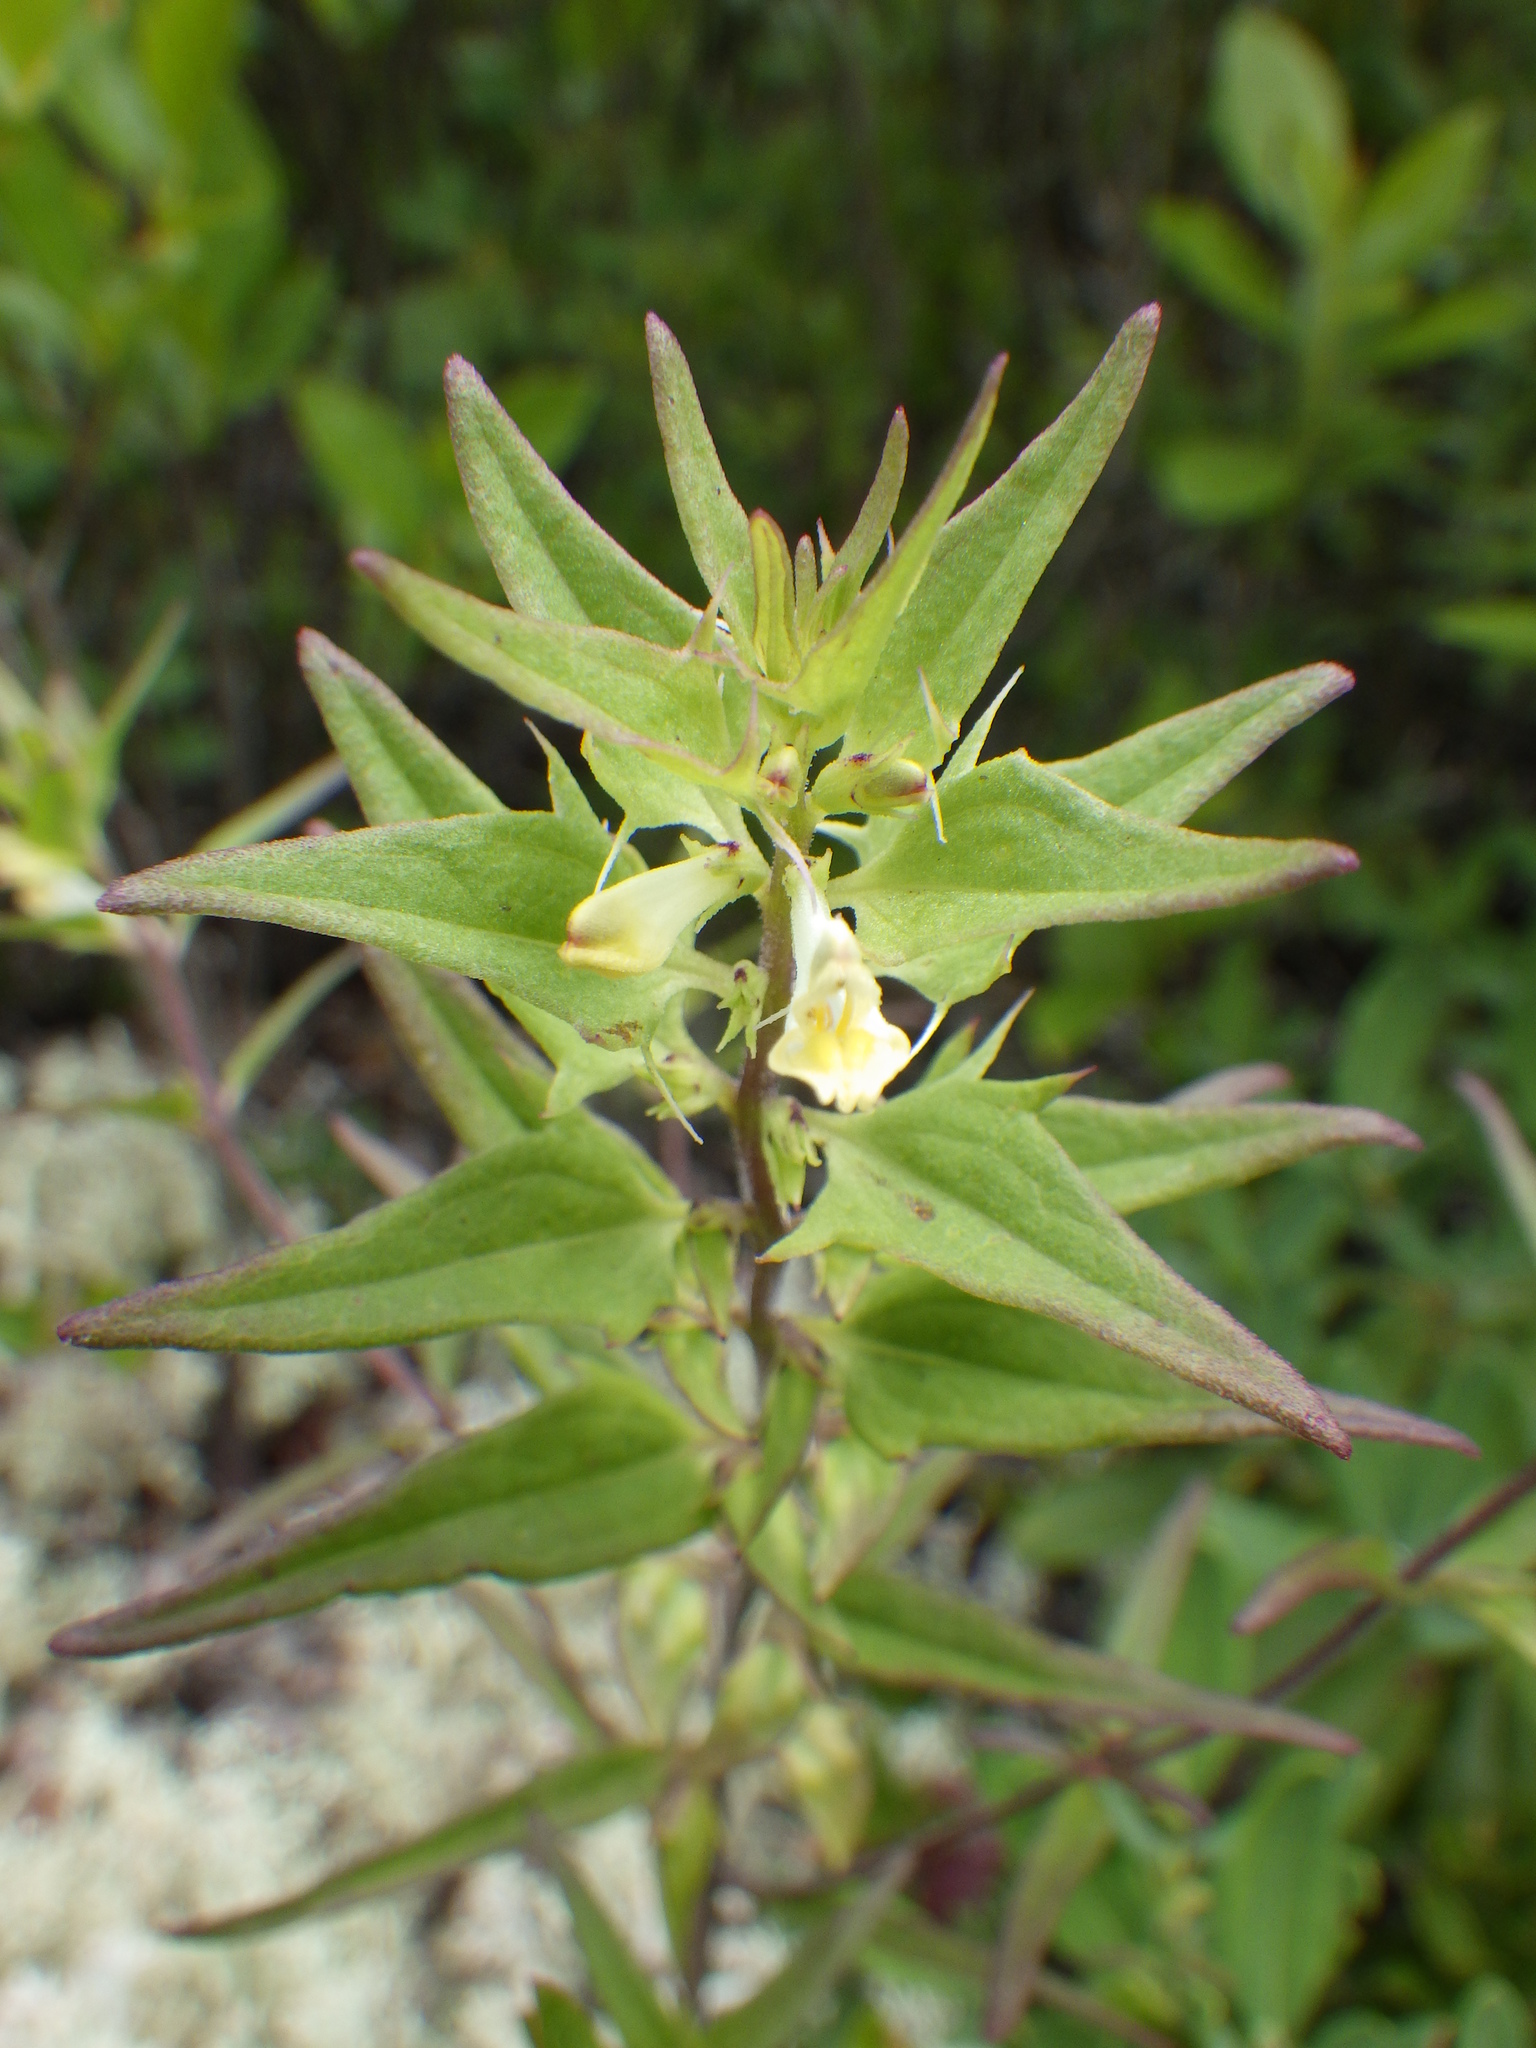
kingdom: Plantae
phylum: Tracheophyta
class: Magnoliopsida
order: Lamiales
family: Orobanchaceae
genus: Melampyrum
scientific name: Melampyrum lineare
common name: American cow-wheat
